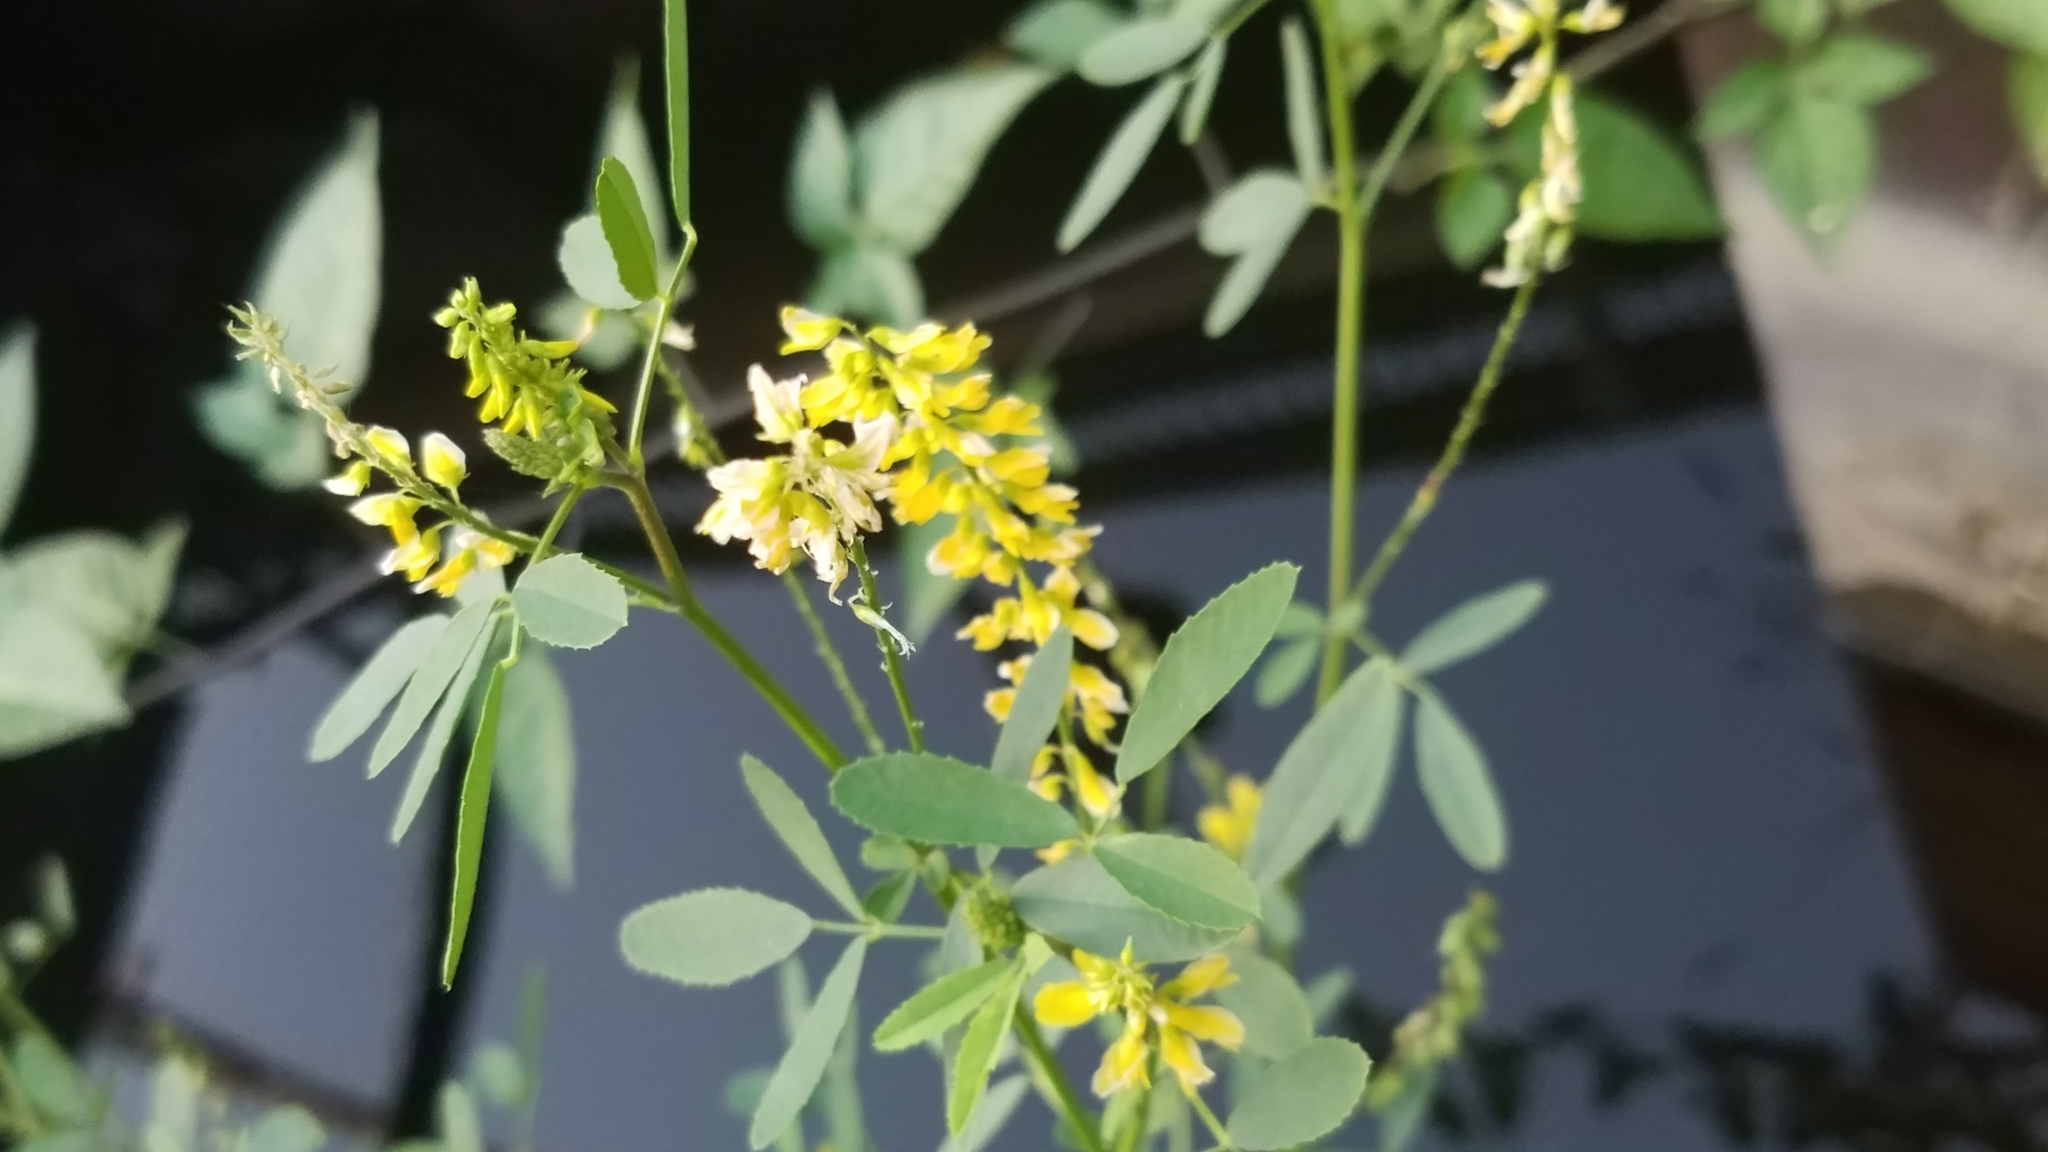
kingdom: Plantae
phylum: Tracheophyta
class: Magnoliopsida
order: Fabales
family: Fabaceae
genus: Melilotus
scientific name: Melilotus officinalis
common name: Sweetclover
